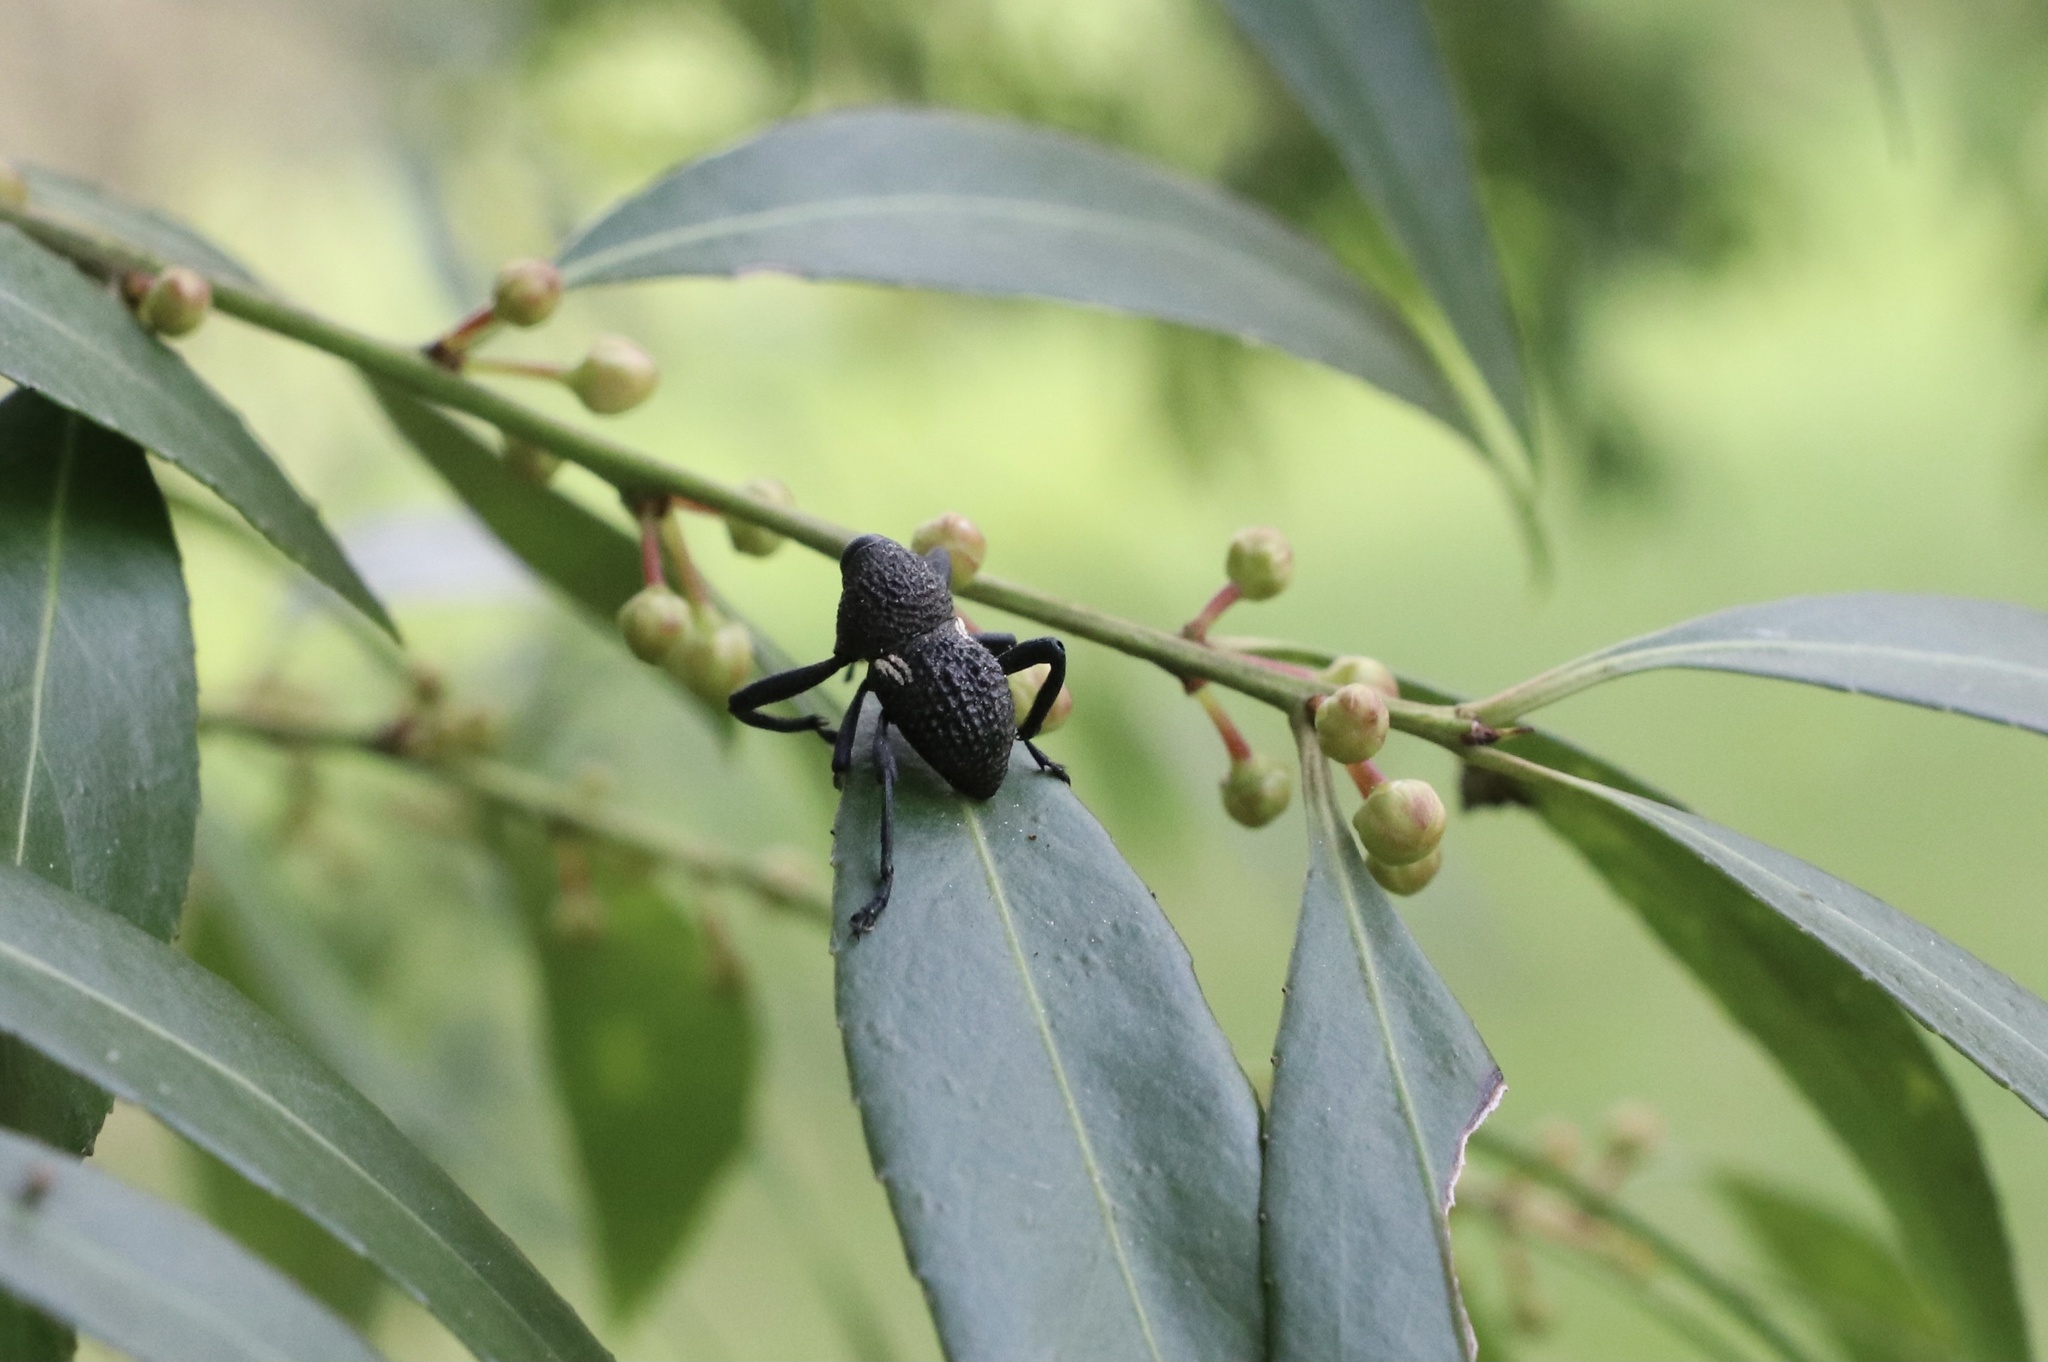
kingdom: Animalia
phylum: Arthropoda
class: Insecta
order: Coleoptera
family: Curculionidae
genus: Rhyephenes
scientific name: Rhyephenes humeralis
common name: Araè±ita chilena del pino
